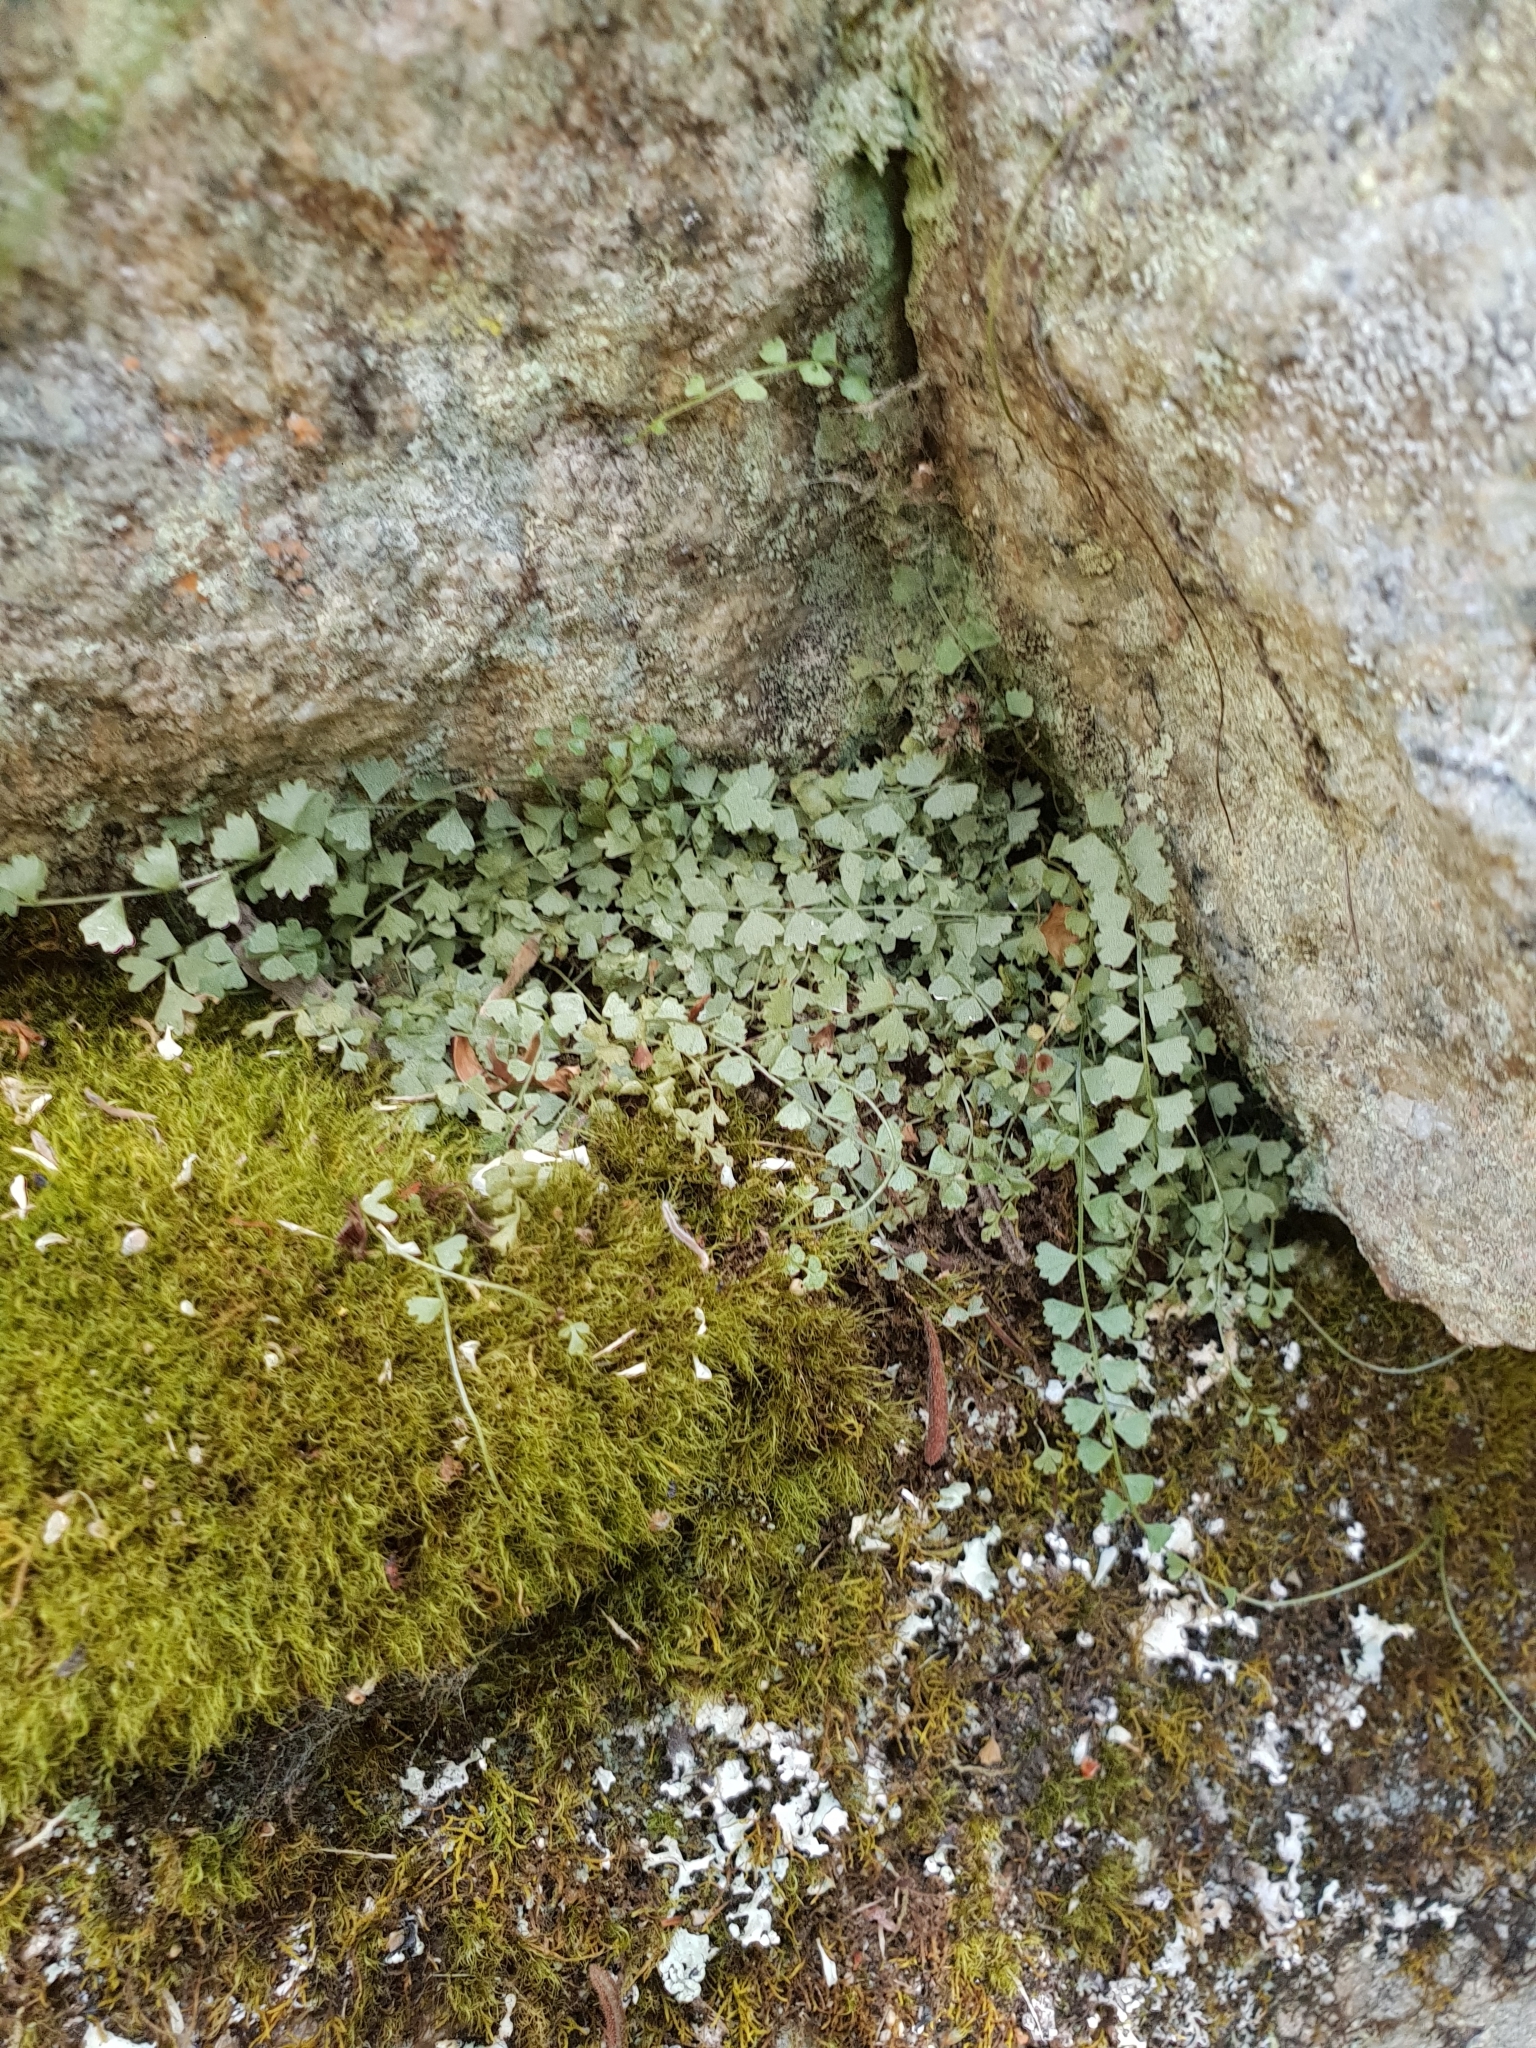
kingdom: Plantae
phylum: Tracheophyta
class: Polypodiopsida
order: Polypodiales
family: Aspleniaceae
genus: Asplenium
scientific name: Asplenium flabellifolium
